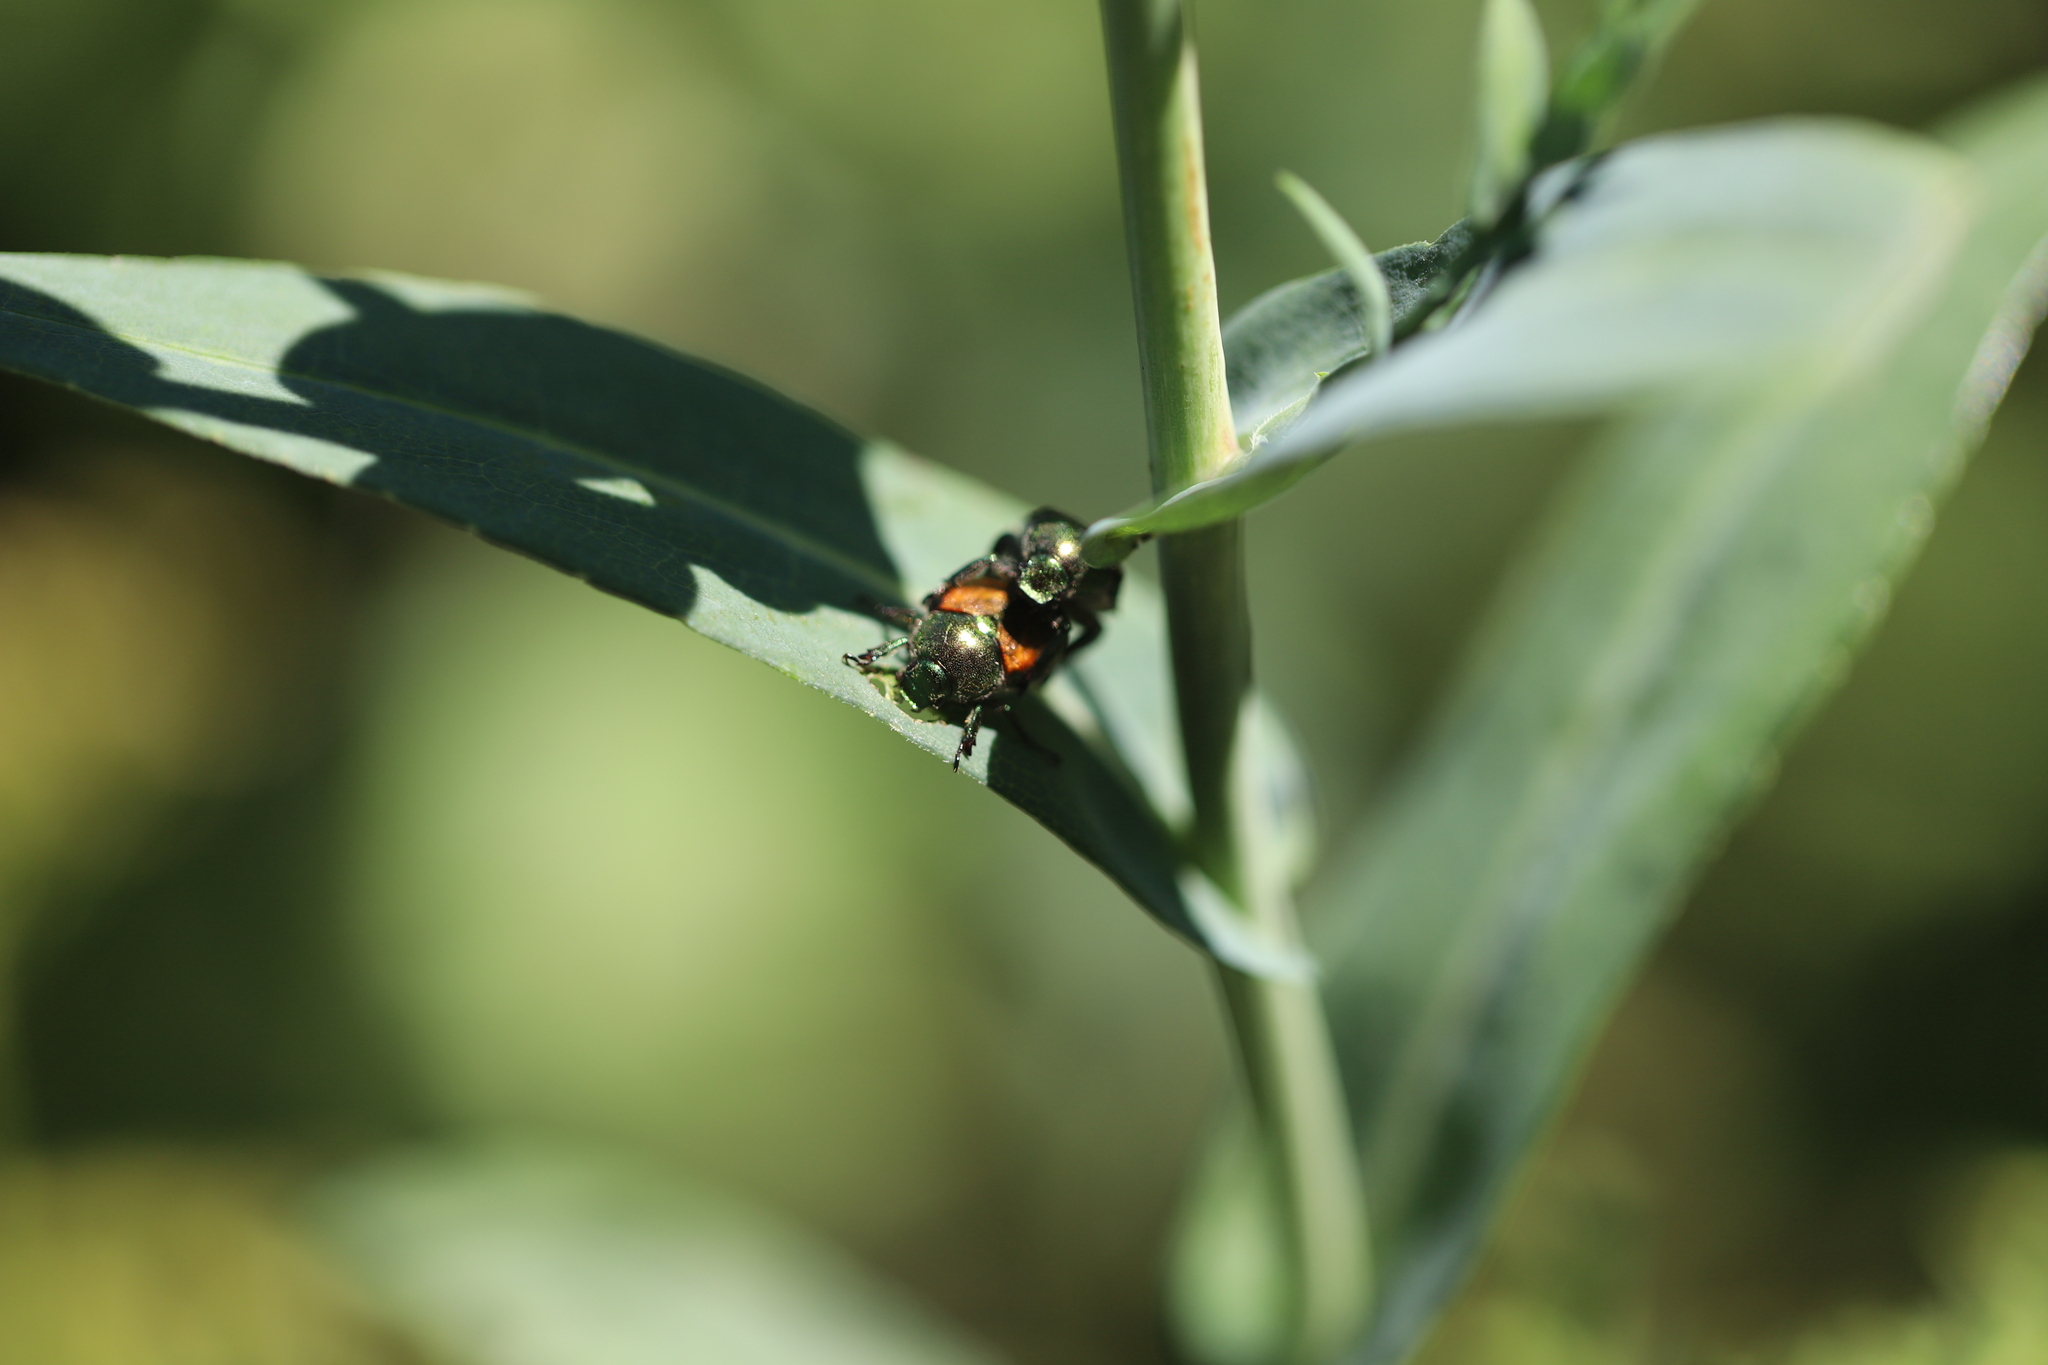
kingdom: Animalia
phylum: Arthropoda
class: Insecta
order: Coleoptera
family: Scarabaeidae
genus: Popillia
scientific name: Popillia japonica
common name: Japanese beetle
